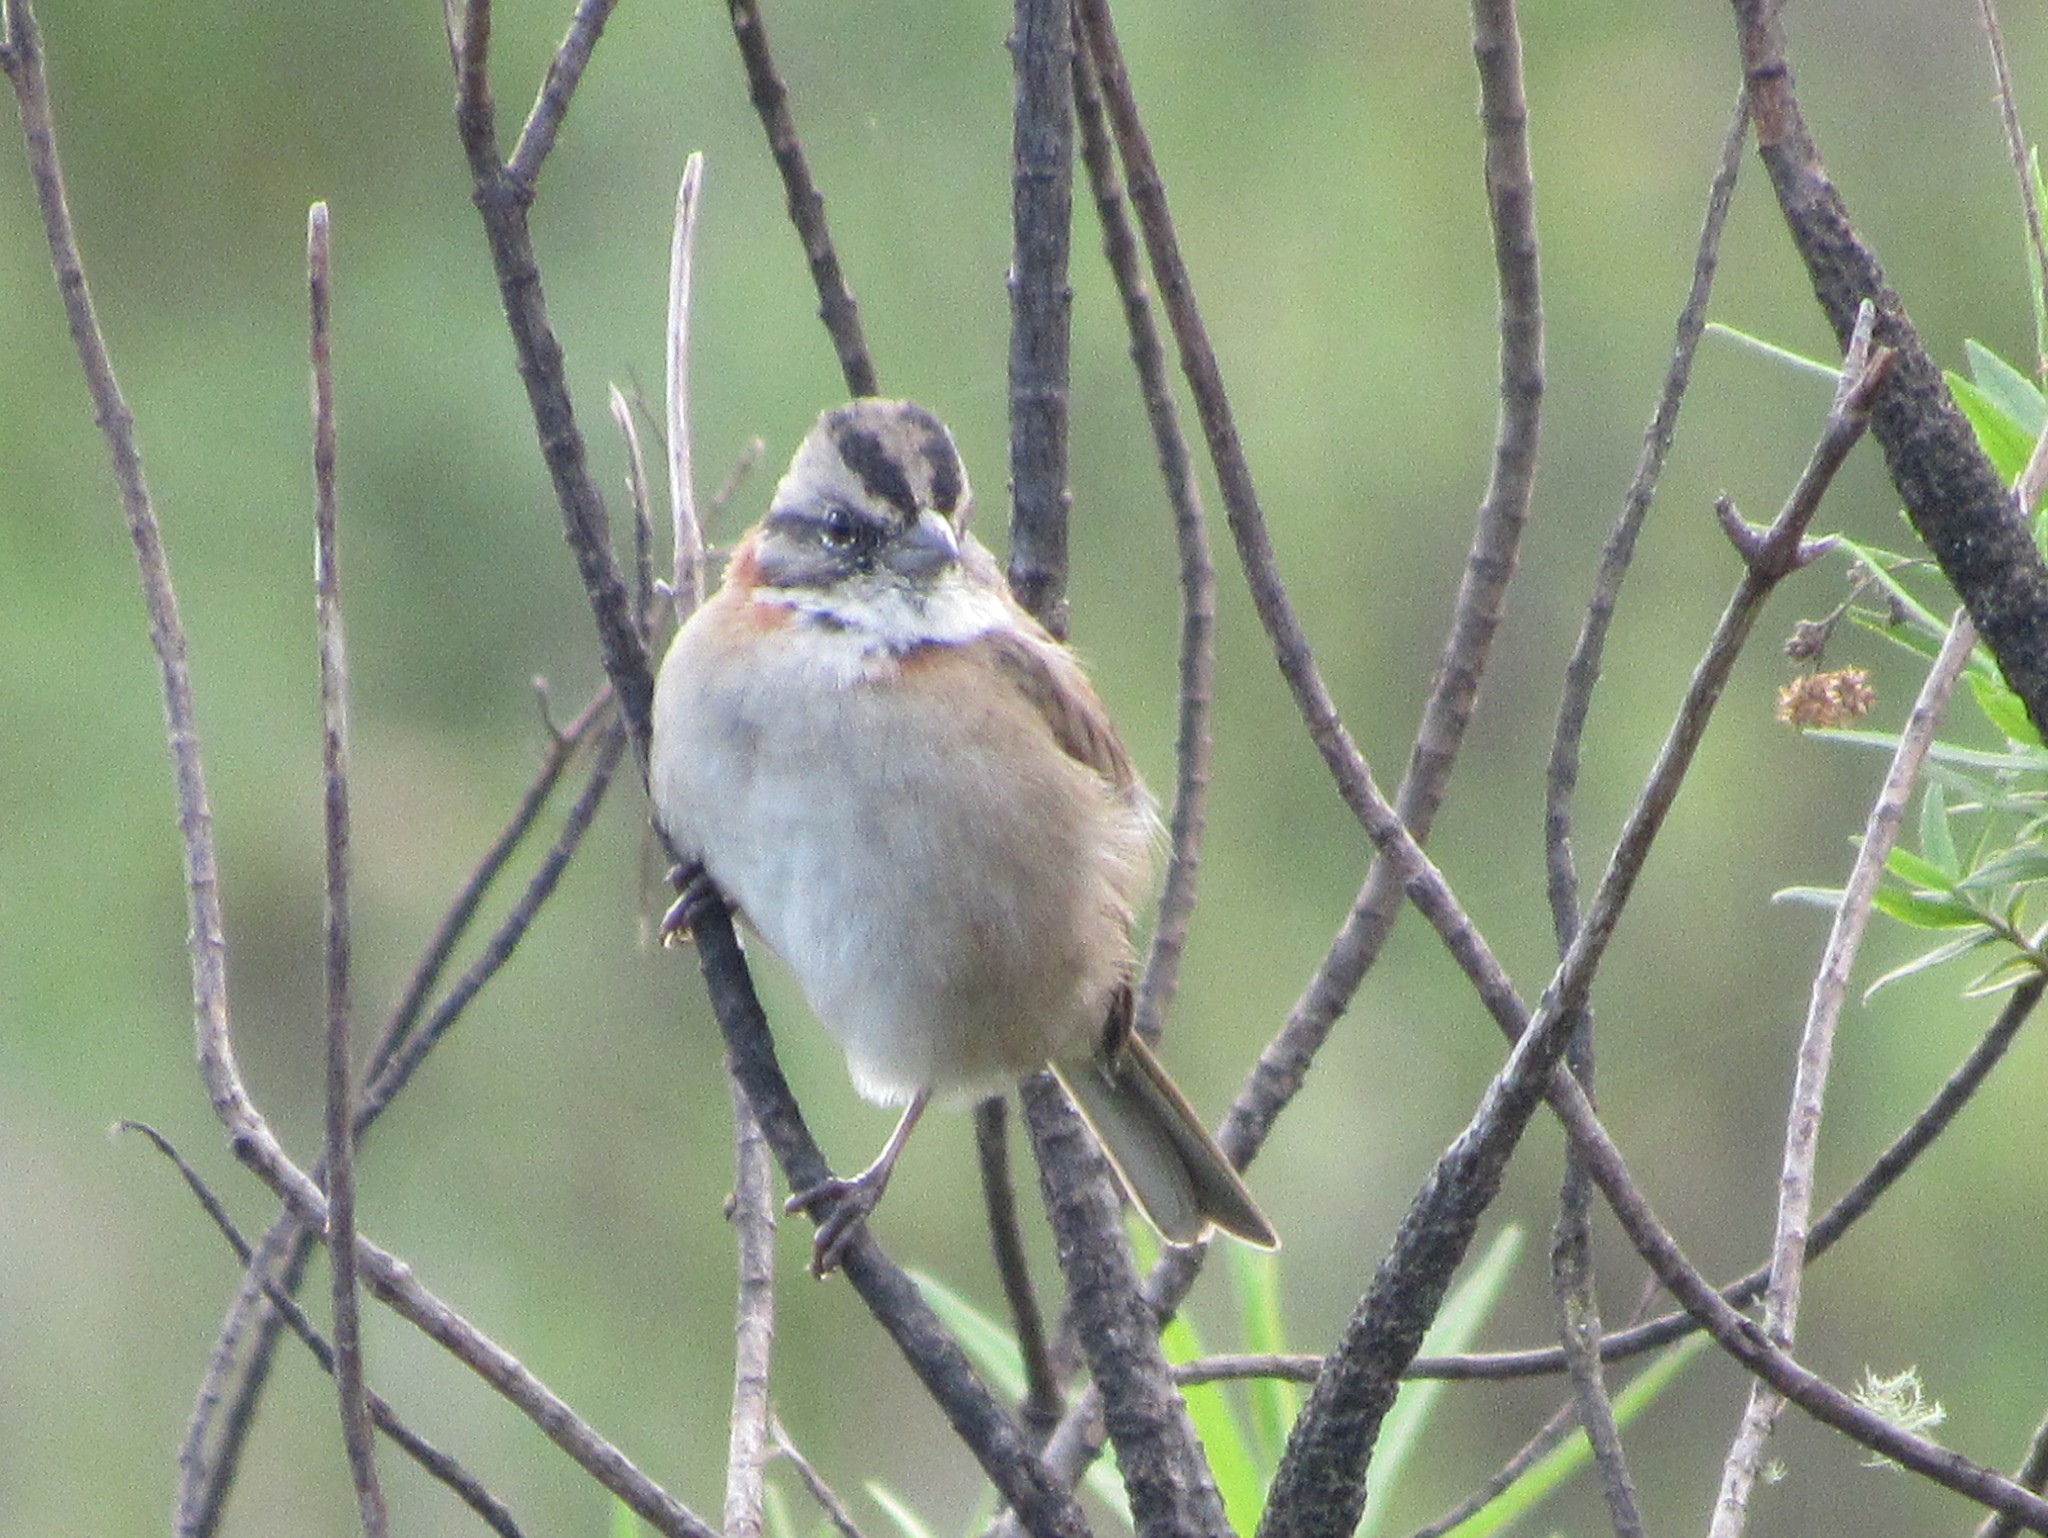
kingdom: Animalia
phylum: Chordata
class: Aves
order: Passeriformes
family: Passerellidae
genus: Zonotrichia
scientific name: Zonotrichia capensis
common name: Rufous-collared sparrow
